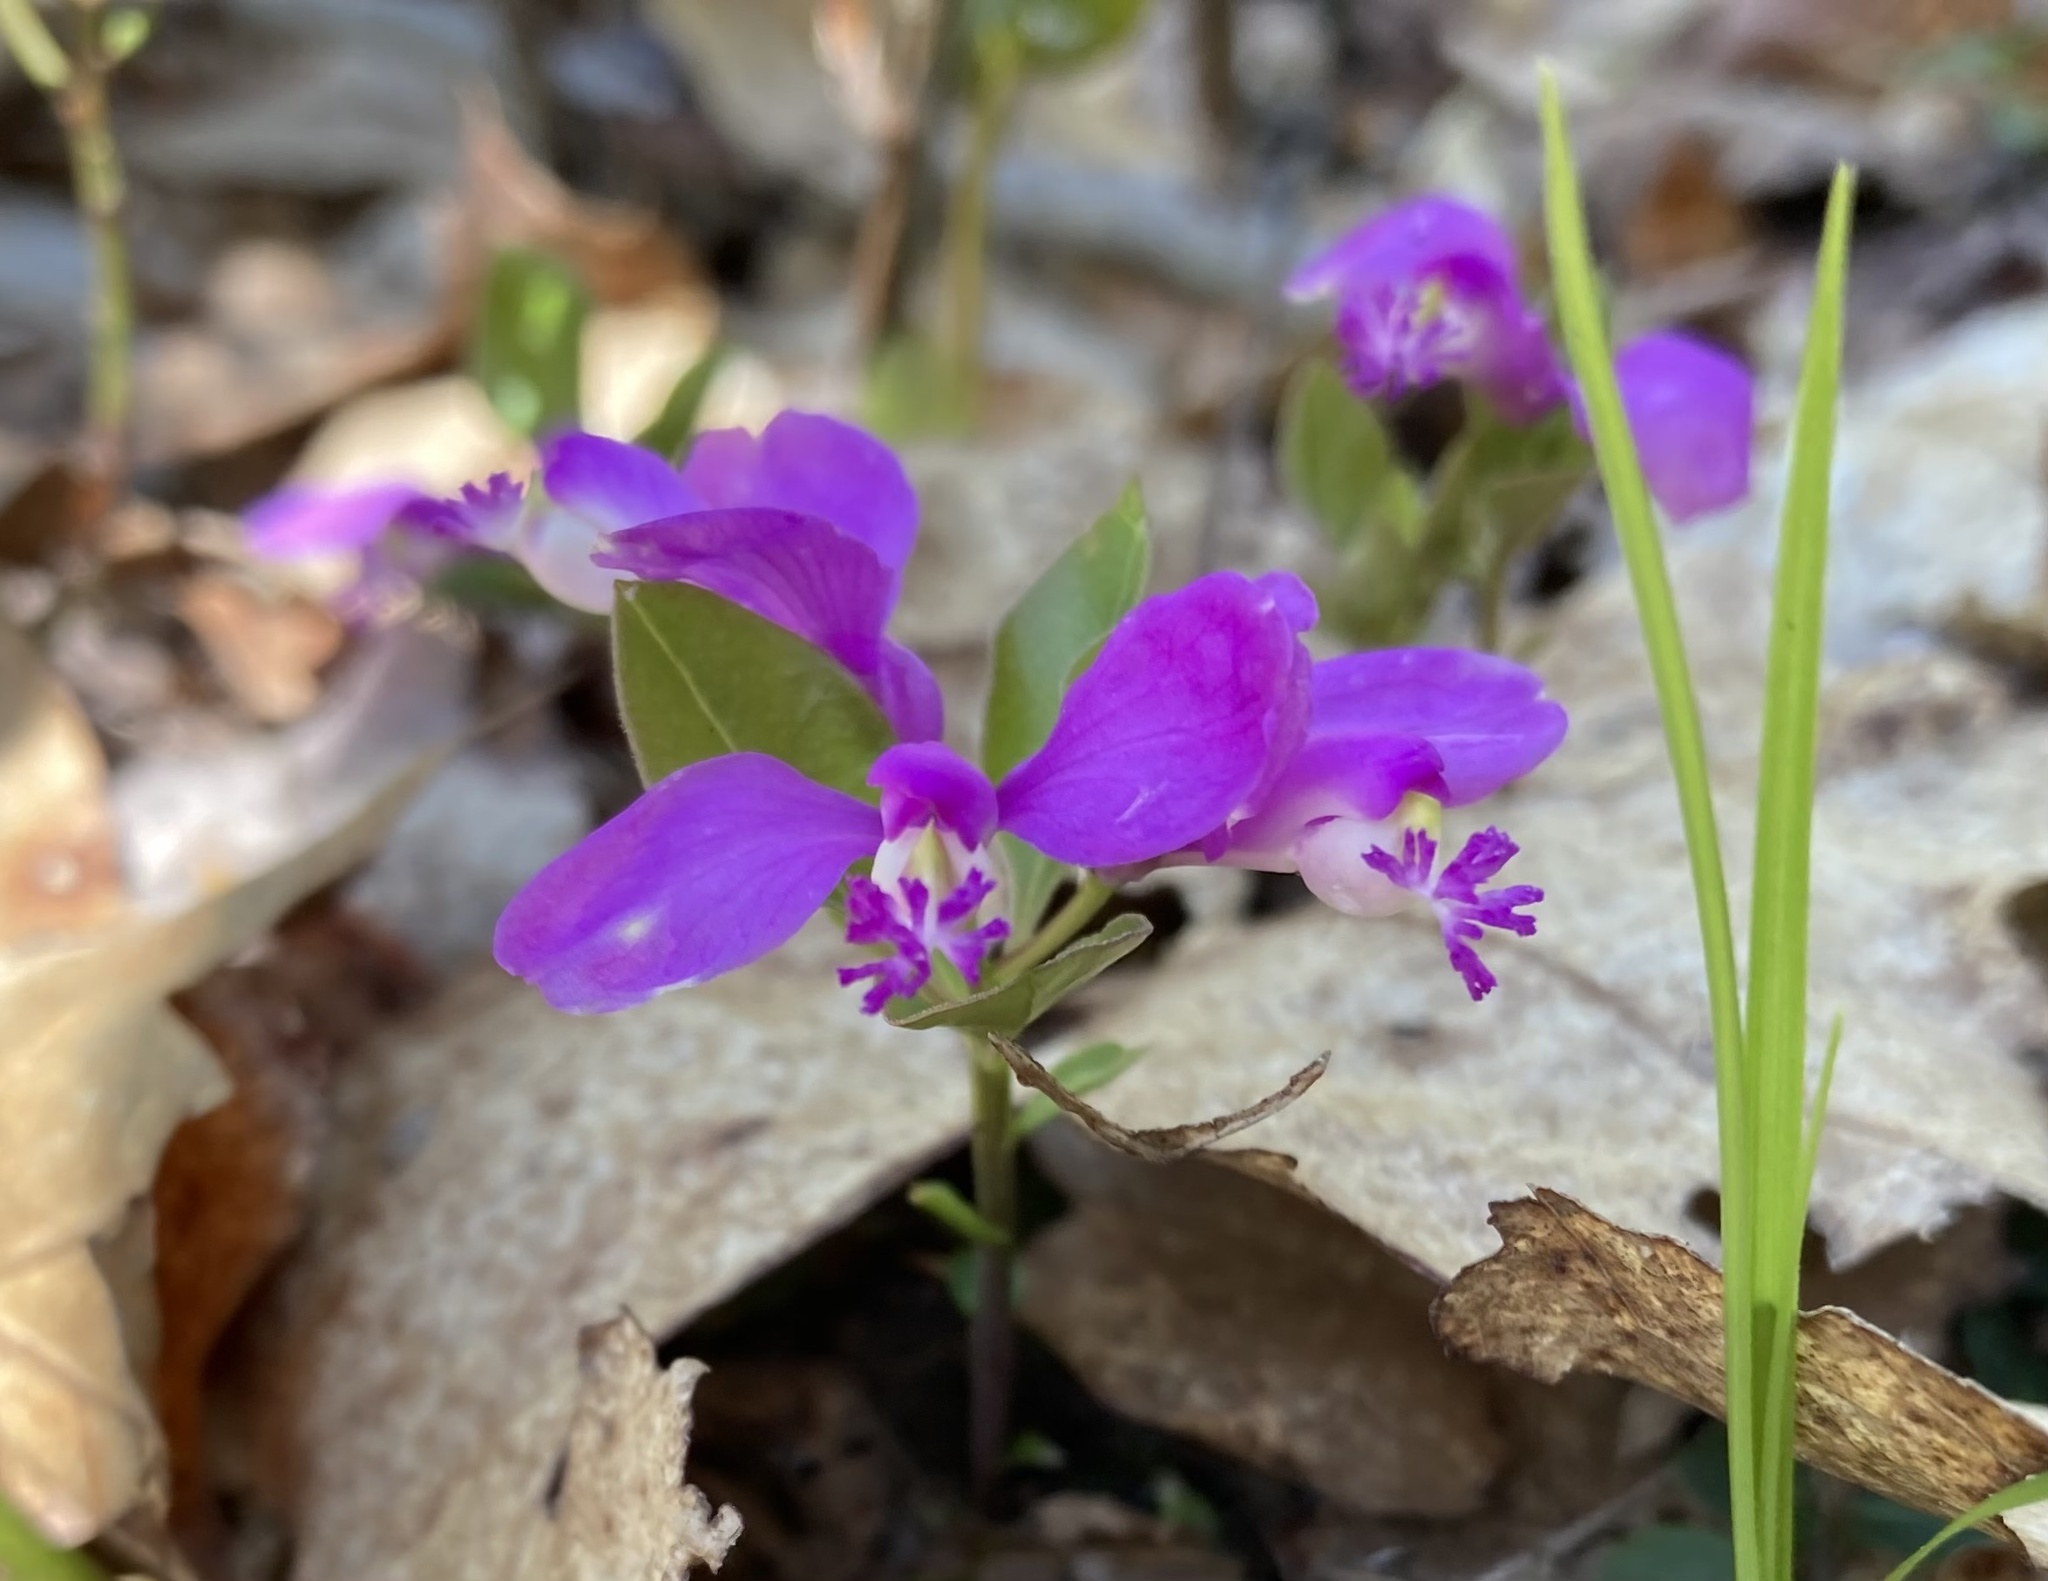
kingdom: Plantae
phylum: Tracheophyta
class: Magnoliopsida
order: Fabales
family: Polygalaceae
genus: Polygaloides
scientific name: Polygaloides paucifolia
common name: Bird-on-the-wing
